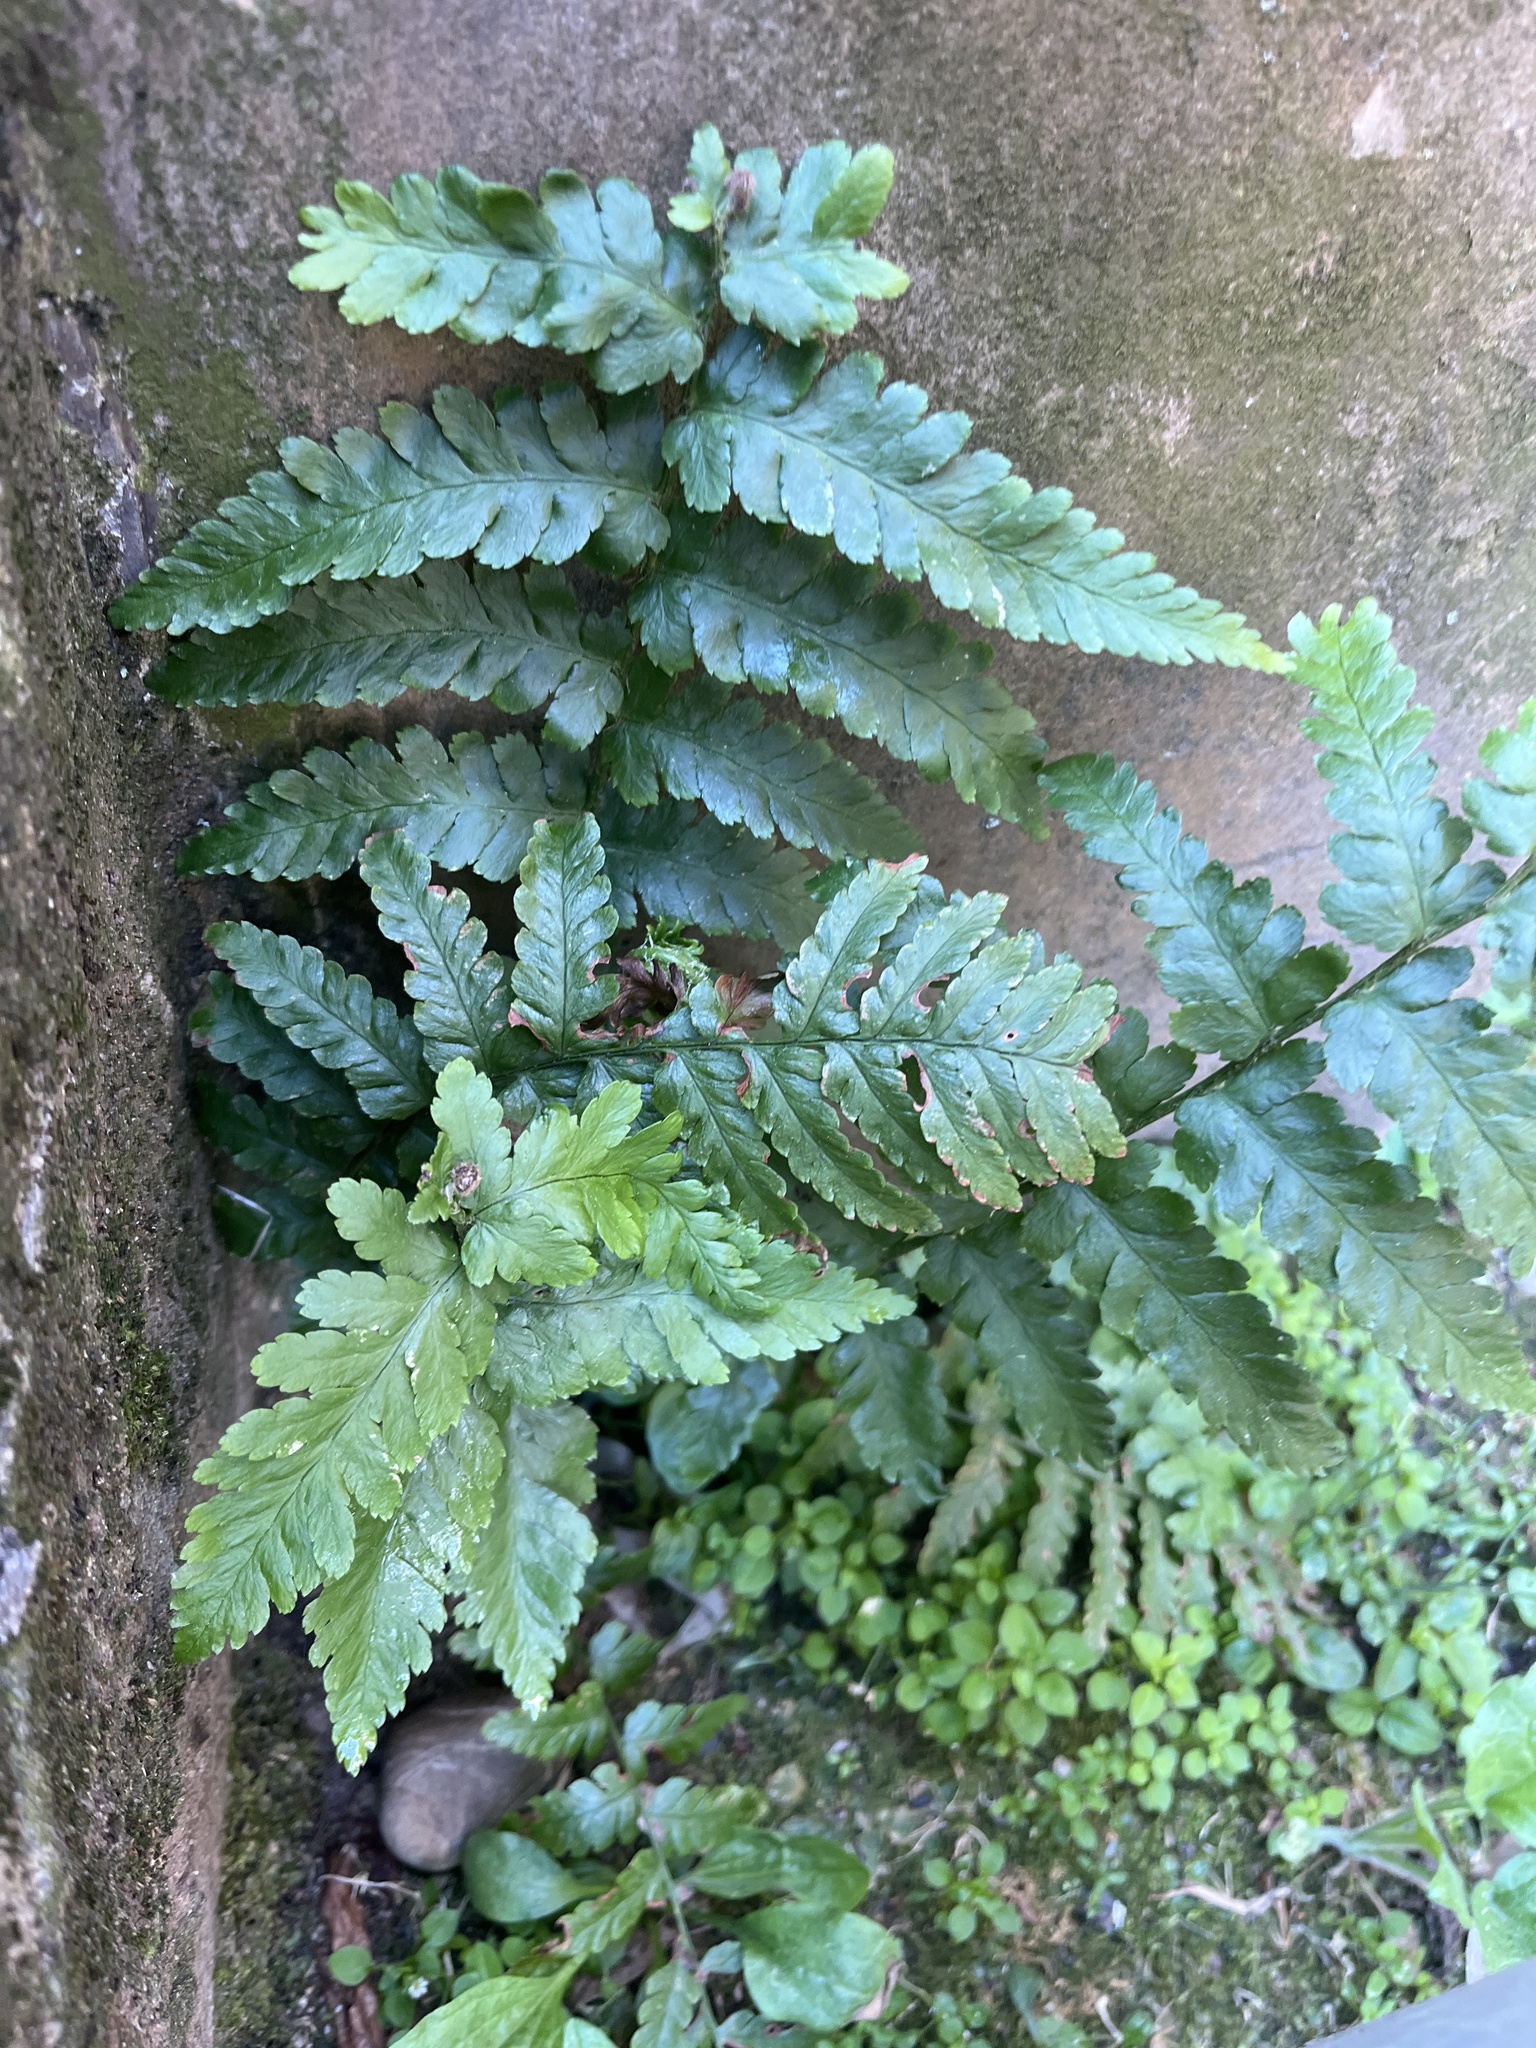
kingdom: Plantae
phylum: Tracheophyta
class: Polypodiopsida
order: Polypodiales
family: Dryopteridaceae
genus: Dryopteris
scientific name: Dryopteris filix-mas
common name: Male fern
